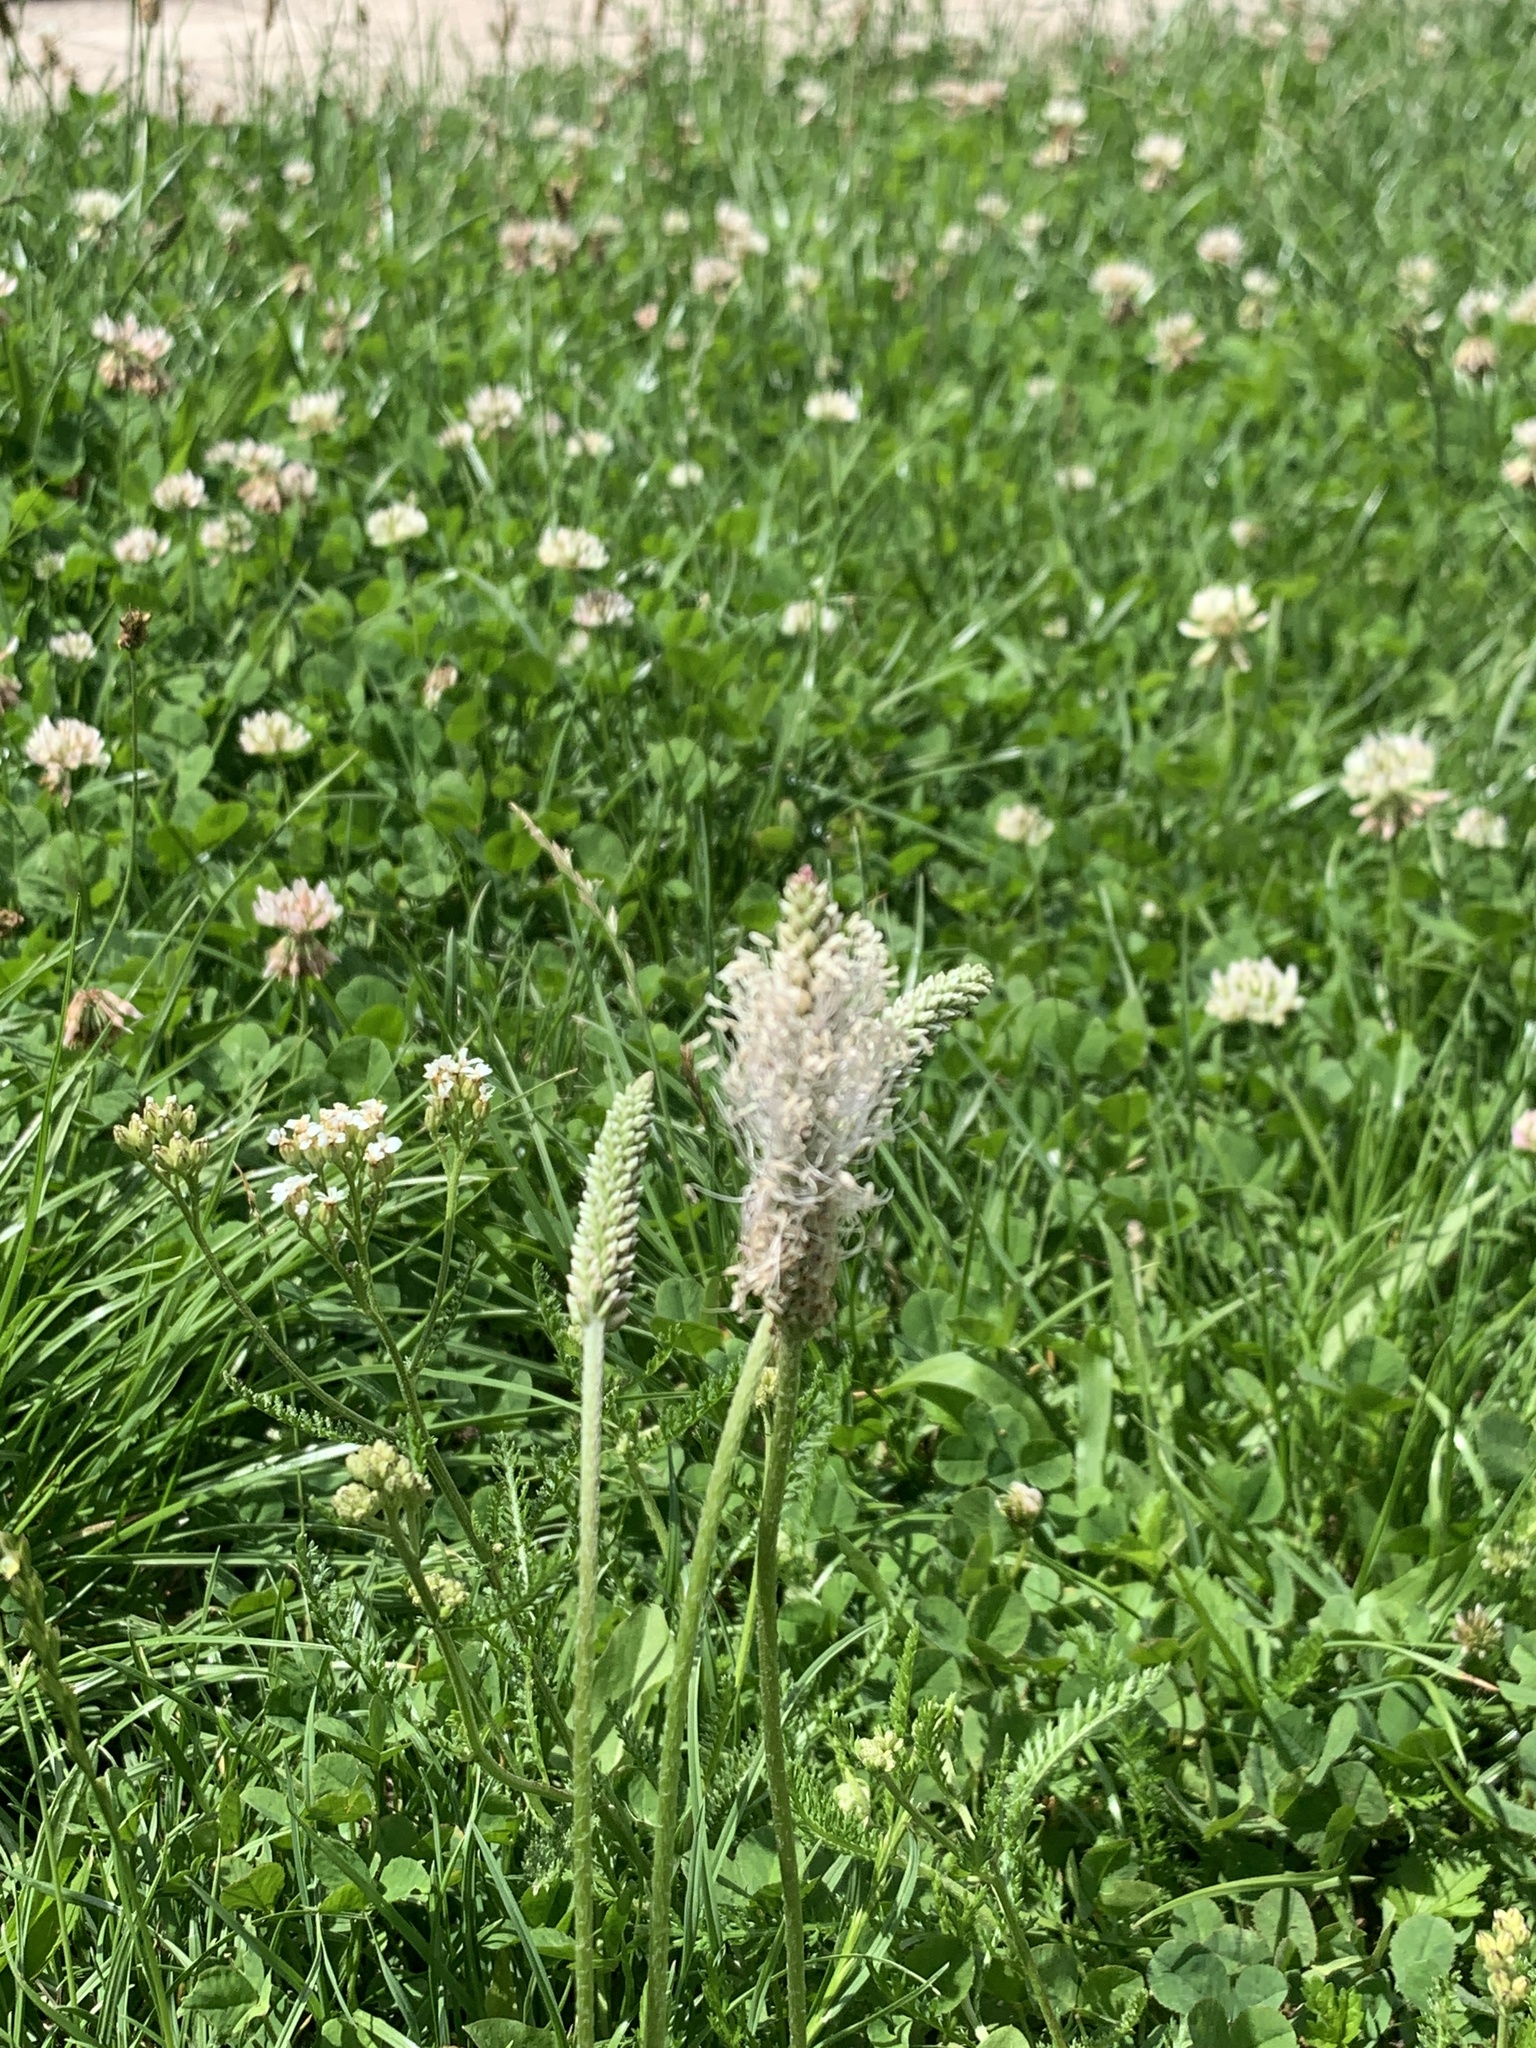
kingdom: Plantae
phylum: Tracheophyta
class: Magnoliopsida
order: Lamiales
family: Plantaginaceae
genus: Plantago
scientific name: Plantago media
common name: Hoary plantain
